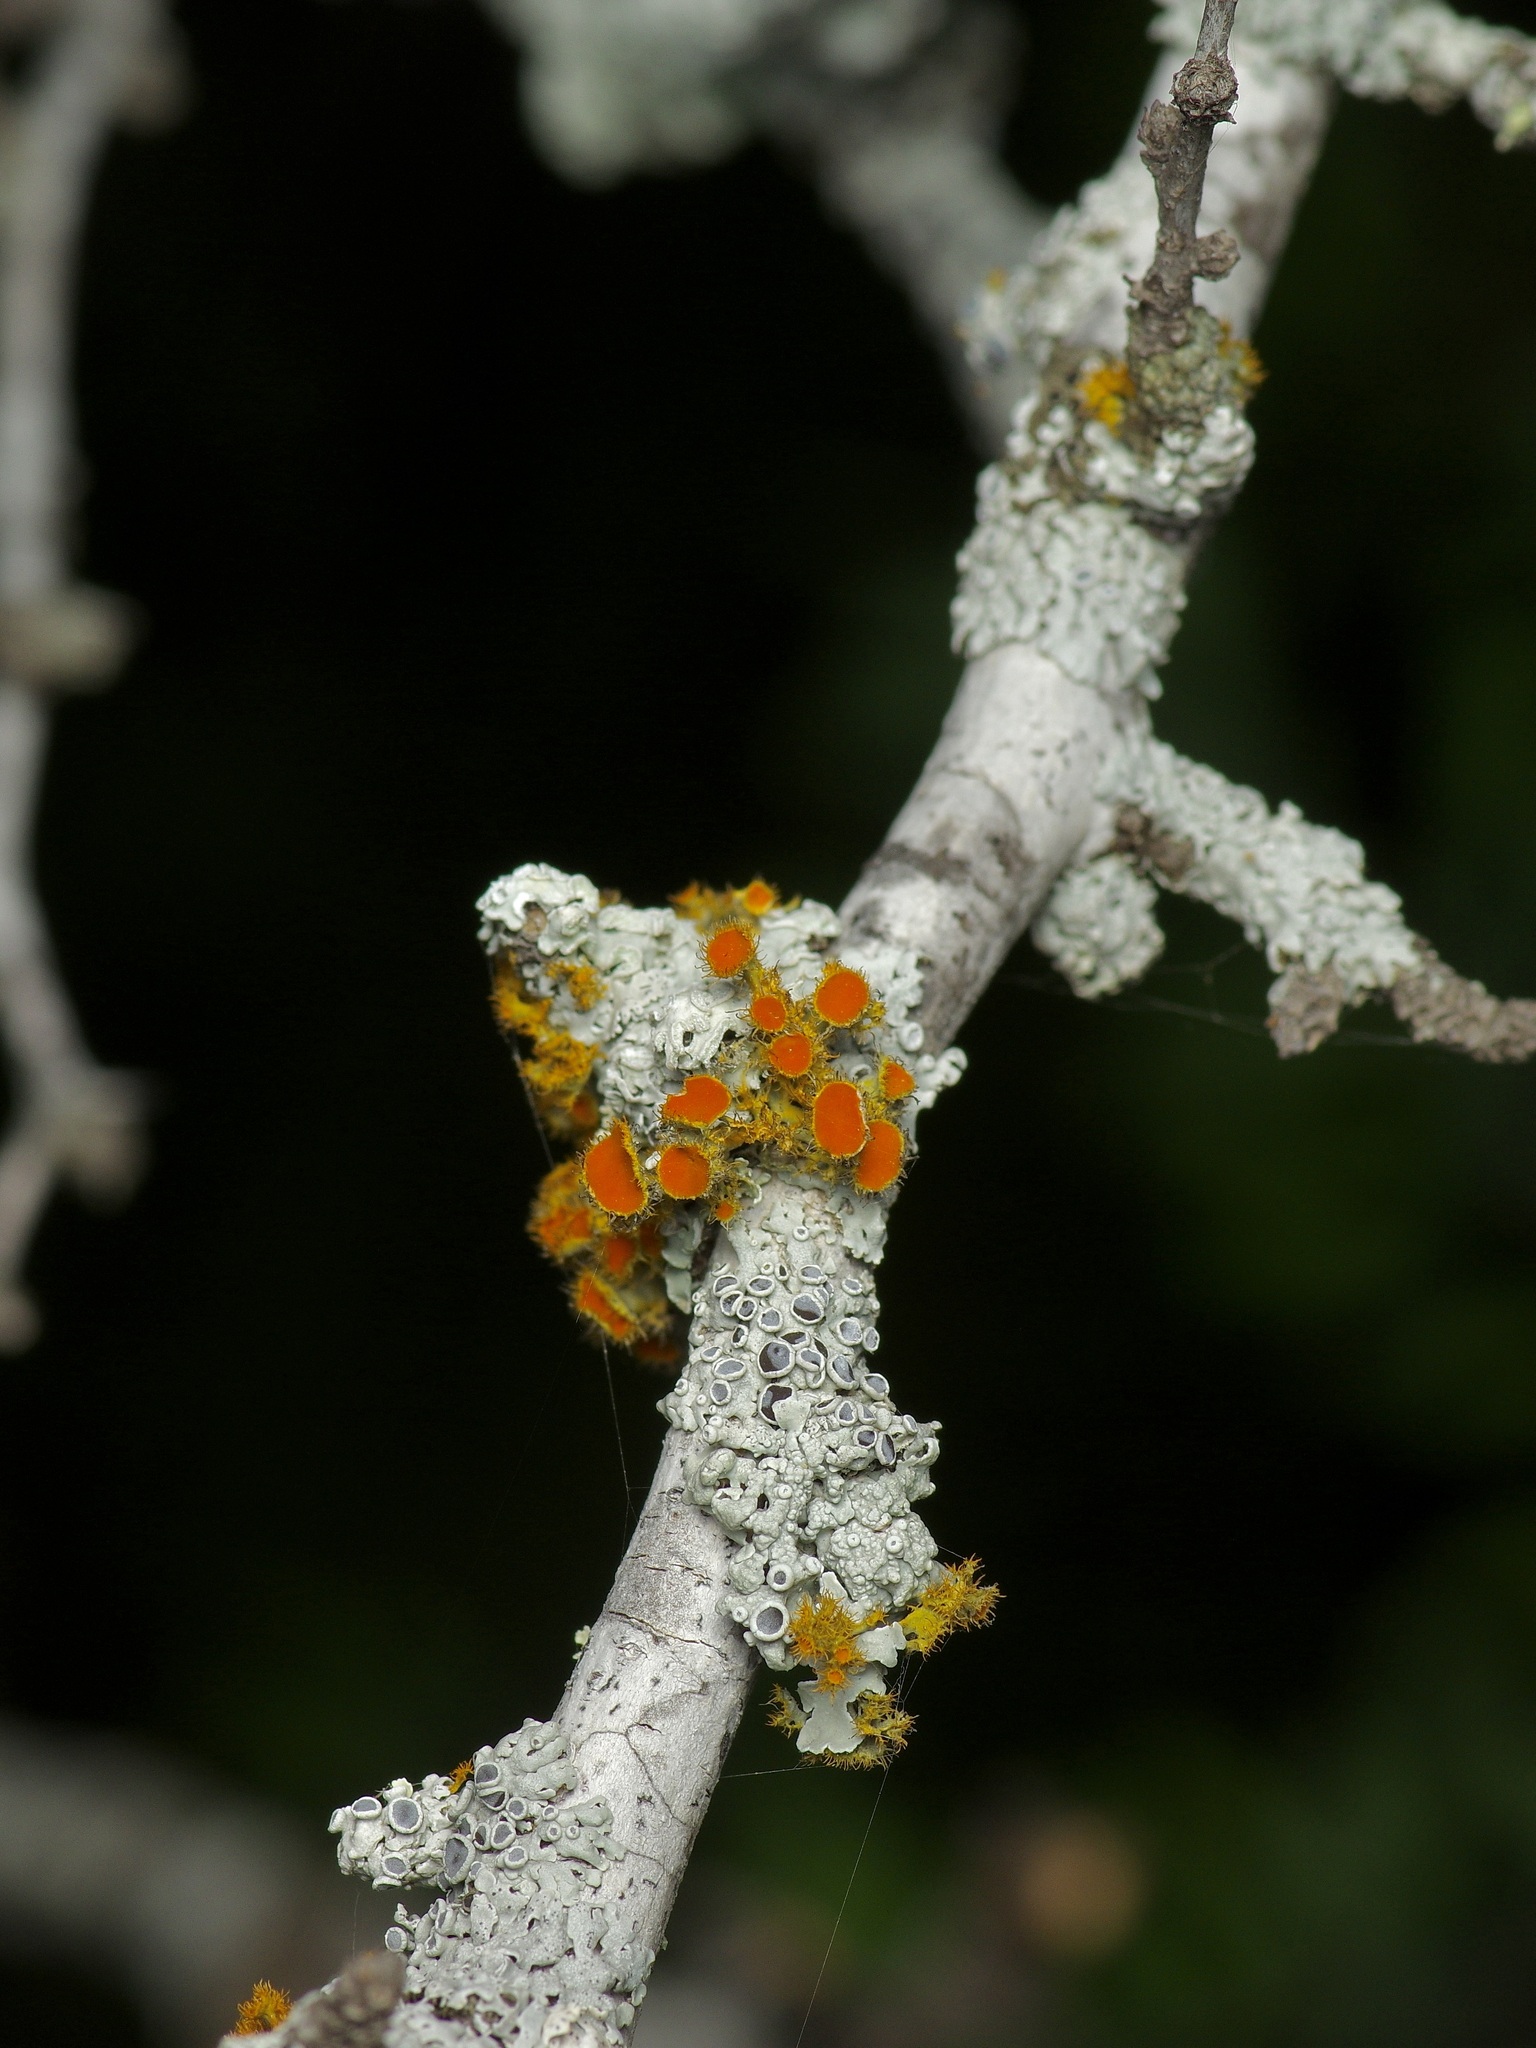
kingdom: Fungi
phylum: Ascomycota
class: Lecanoromycetes
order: Teloschistales
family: Teloschistaceae
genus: Niorma
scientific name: Niorma chrysophthalma
